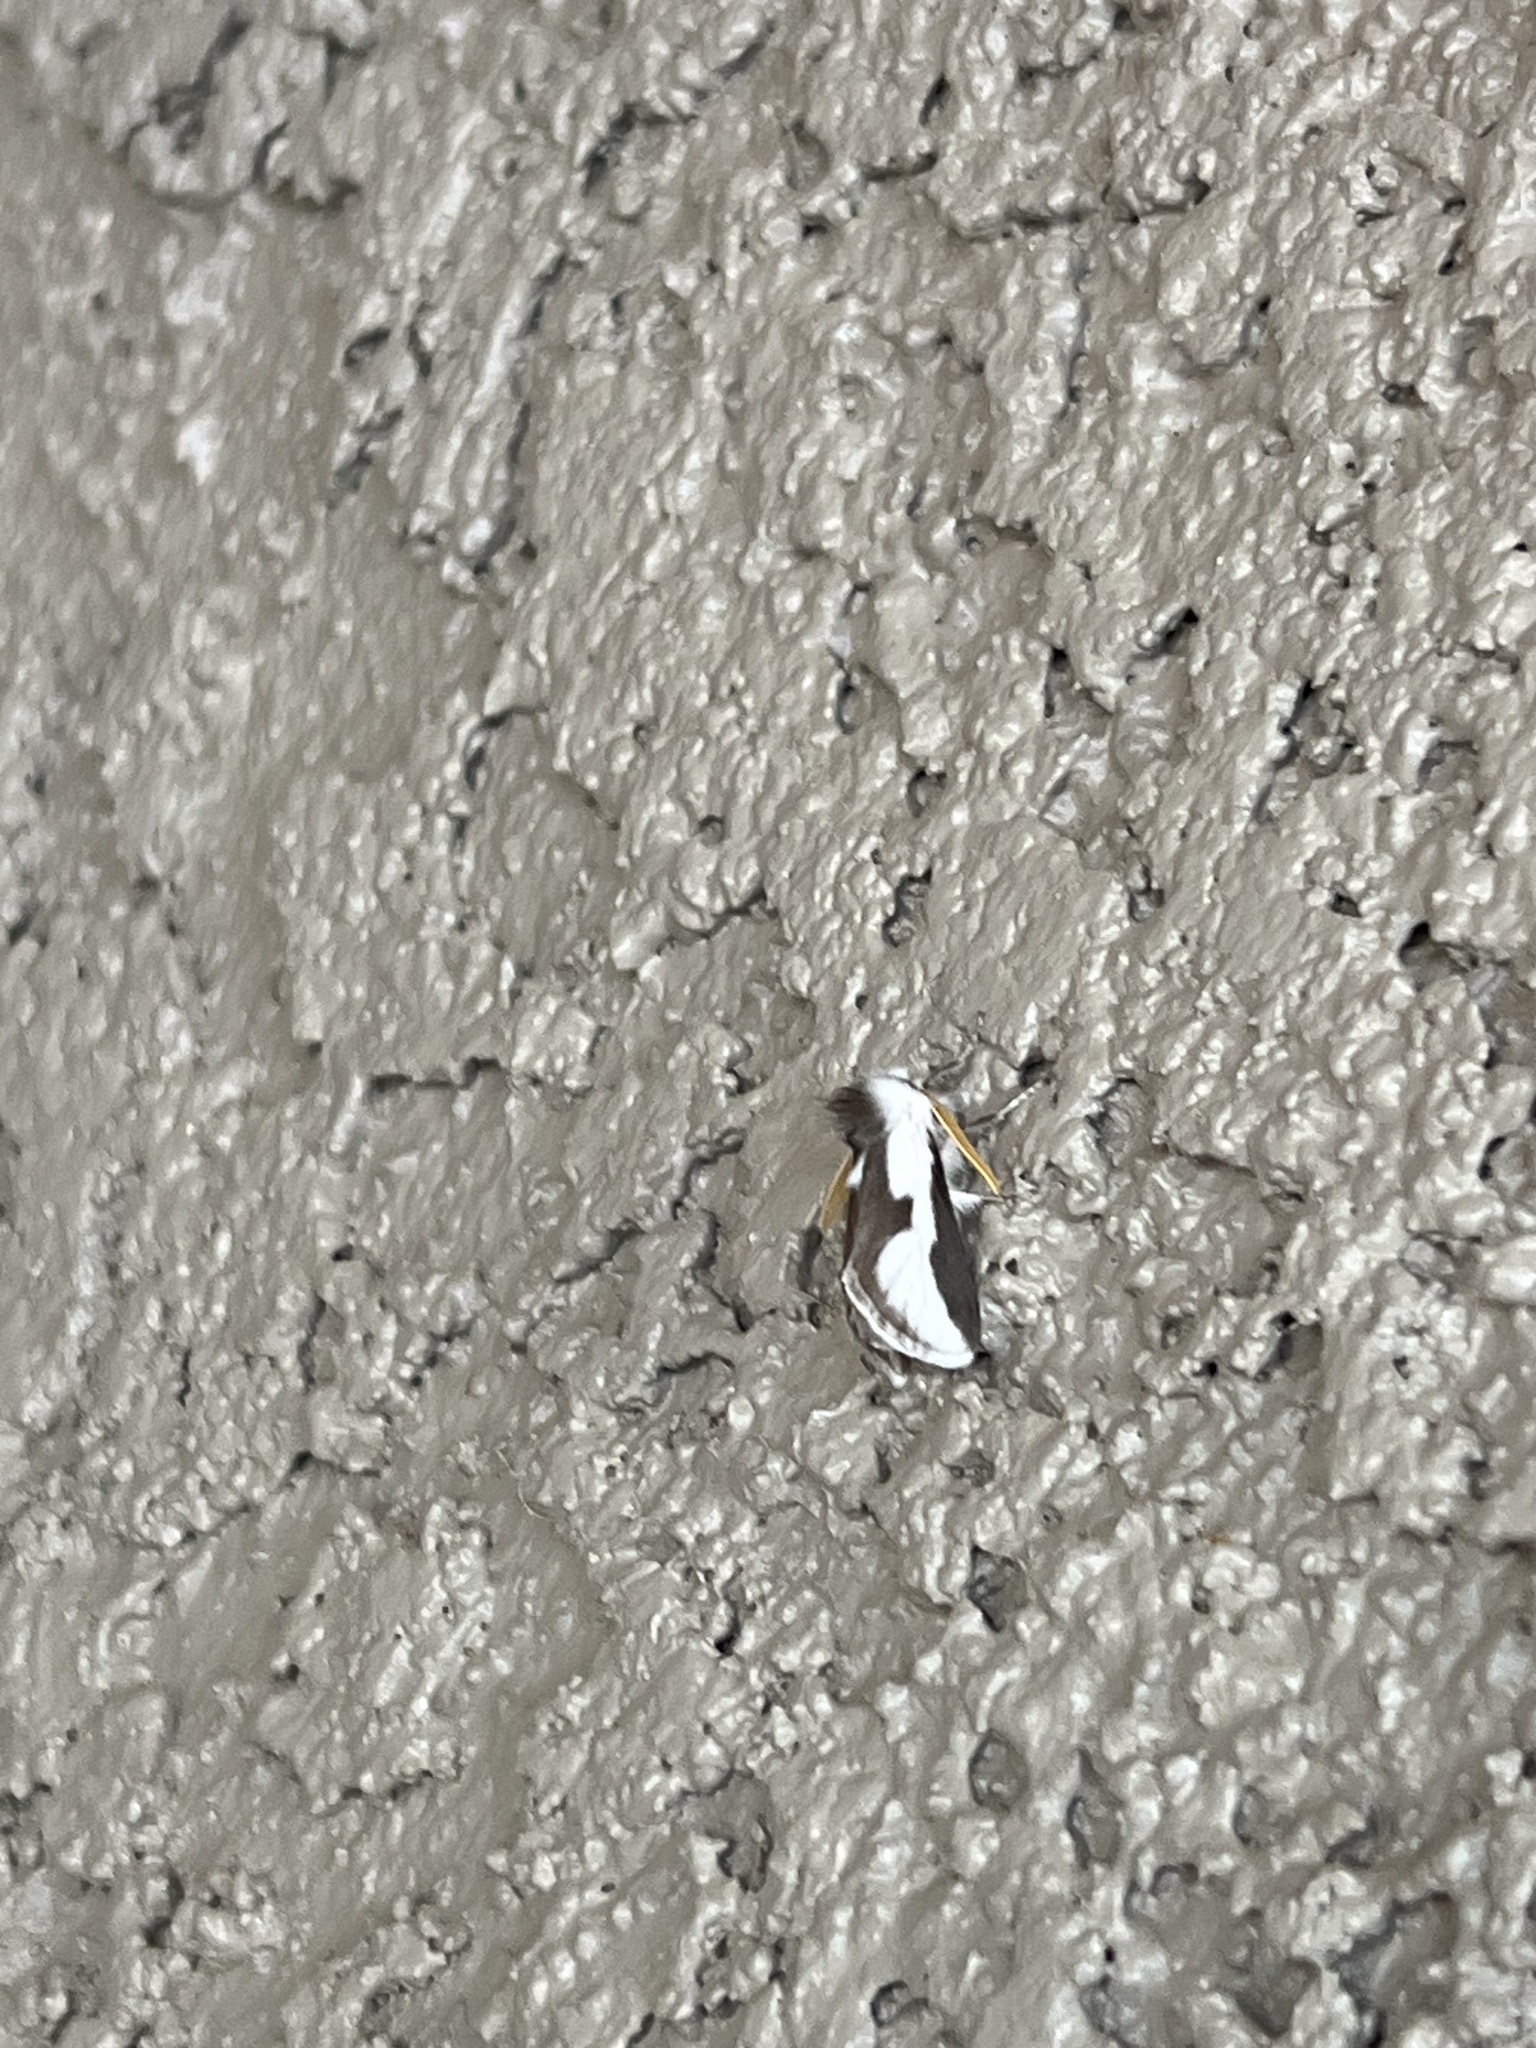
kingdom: Animalia
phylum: Arthropoda
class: Insecta
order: Lepidoptera
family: Megalopygidae
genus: Norape
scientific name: Norape tener
